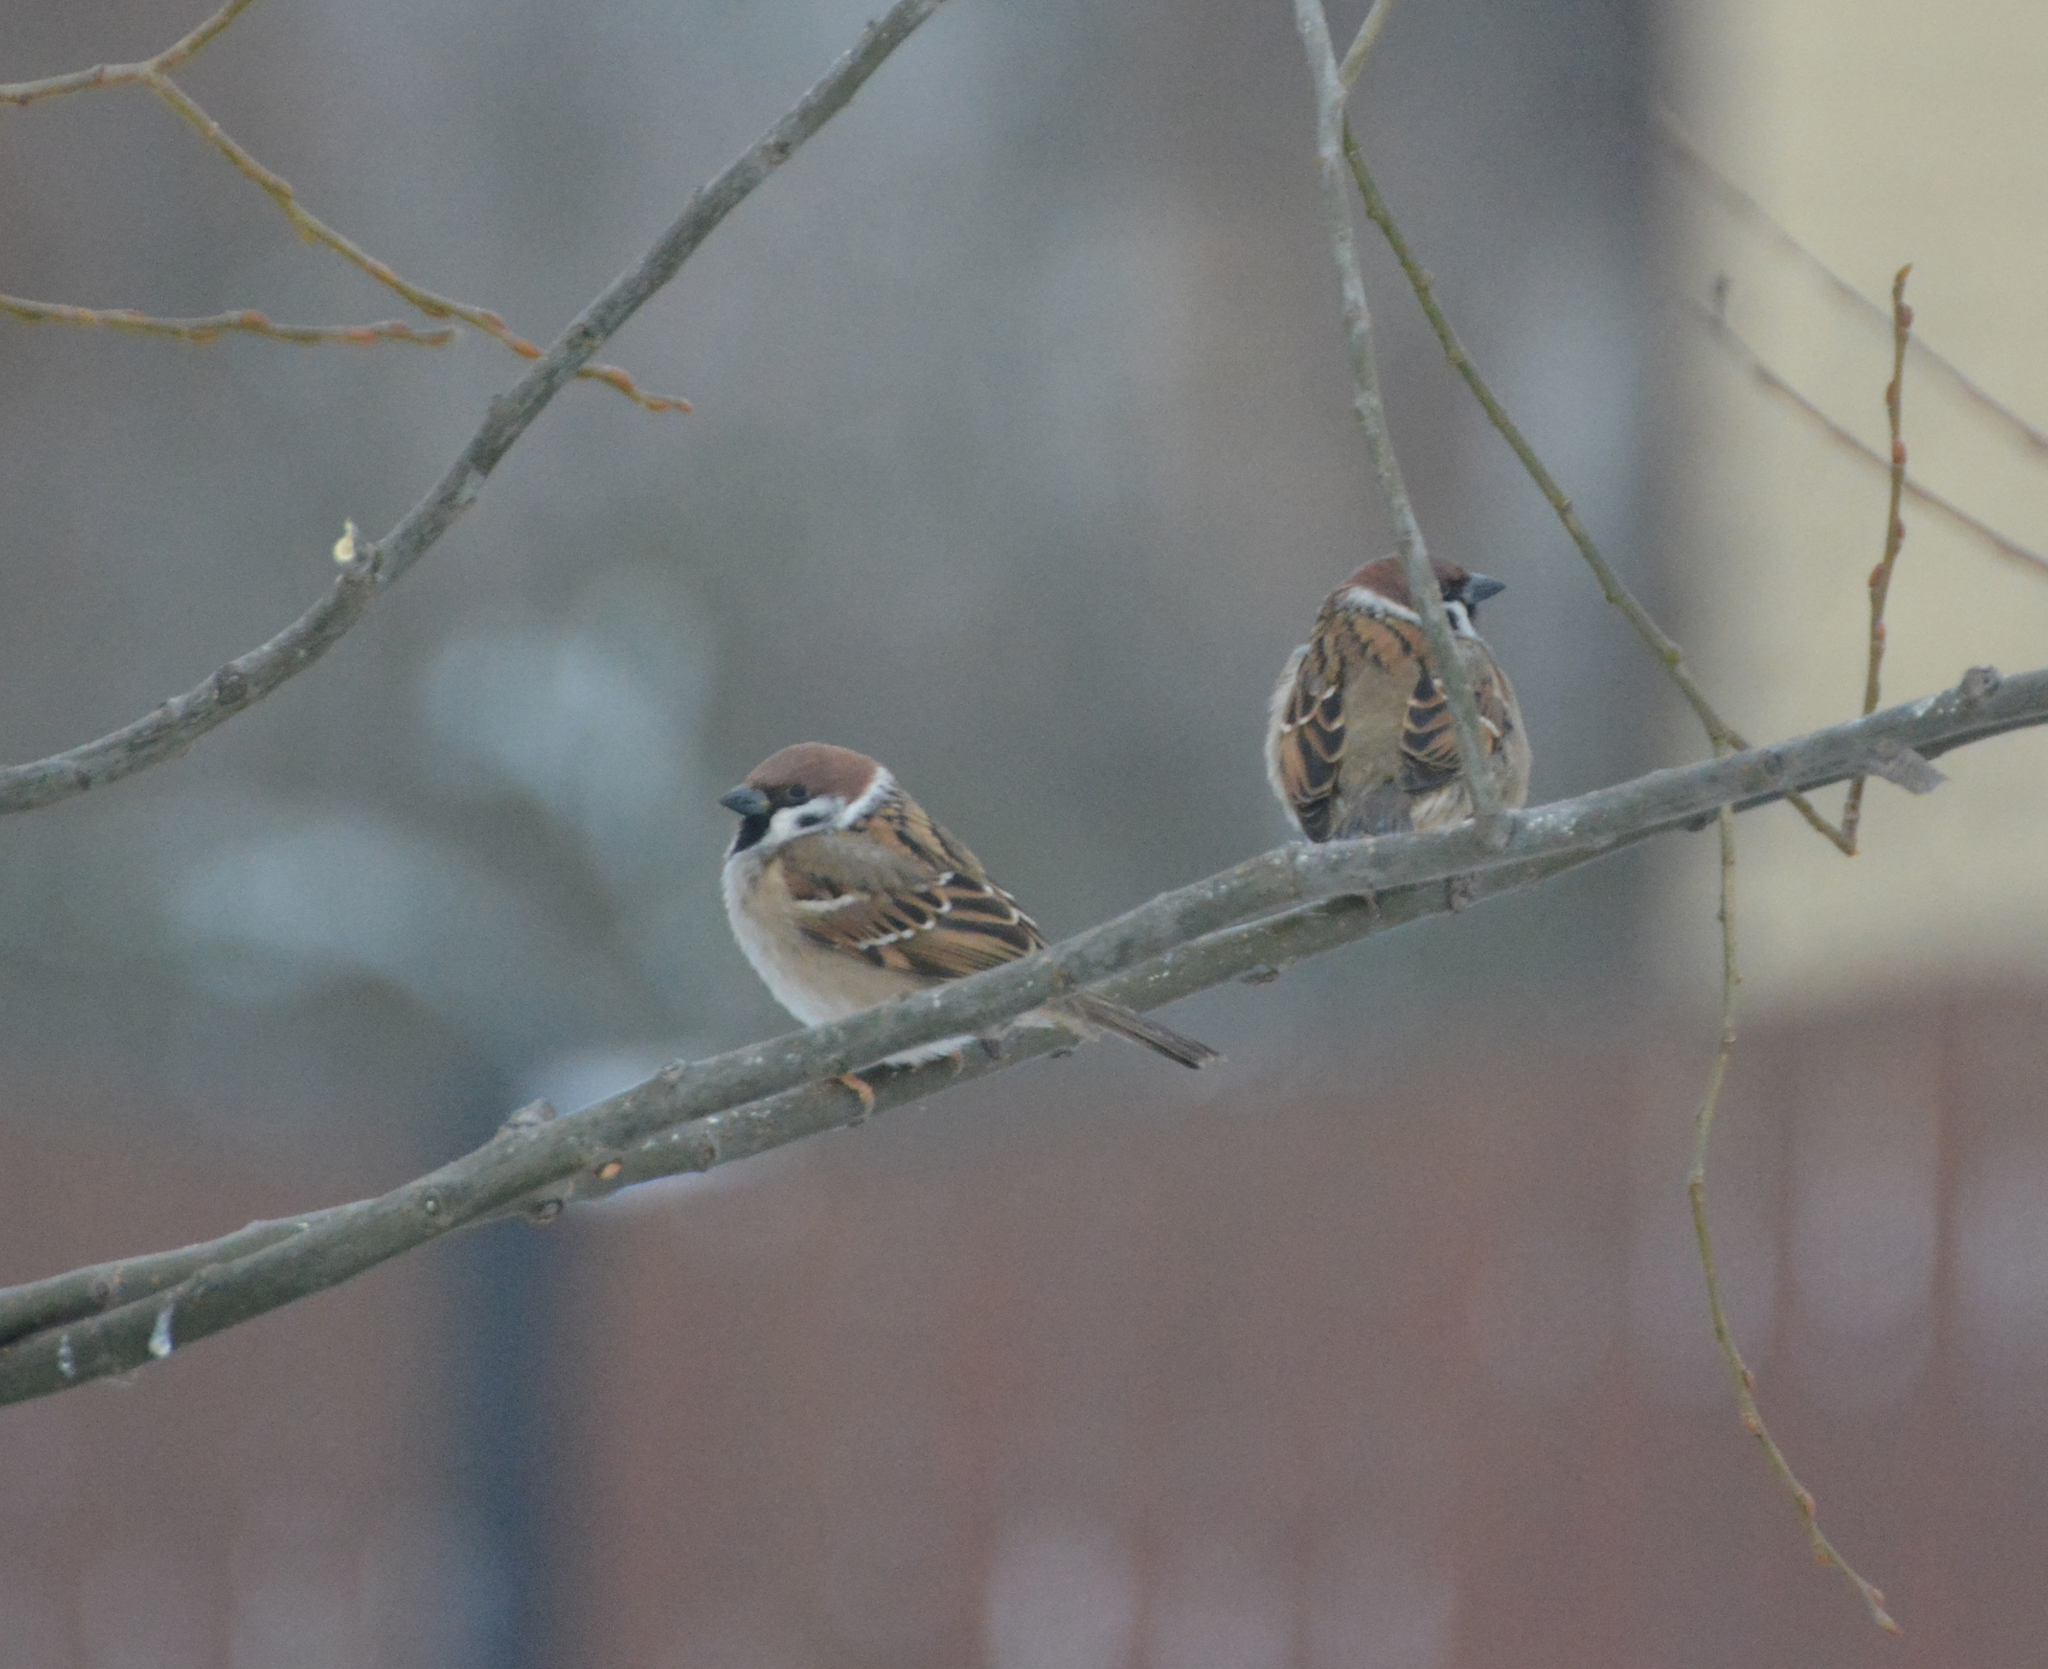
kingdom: Animalia
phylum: Chordata
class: Aves
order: Passeriformes
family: Passeridae
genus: Passer
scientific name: Passer montanus
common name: Eurasian tree sparrow
